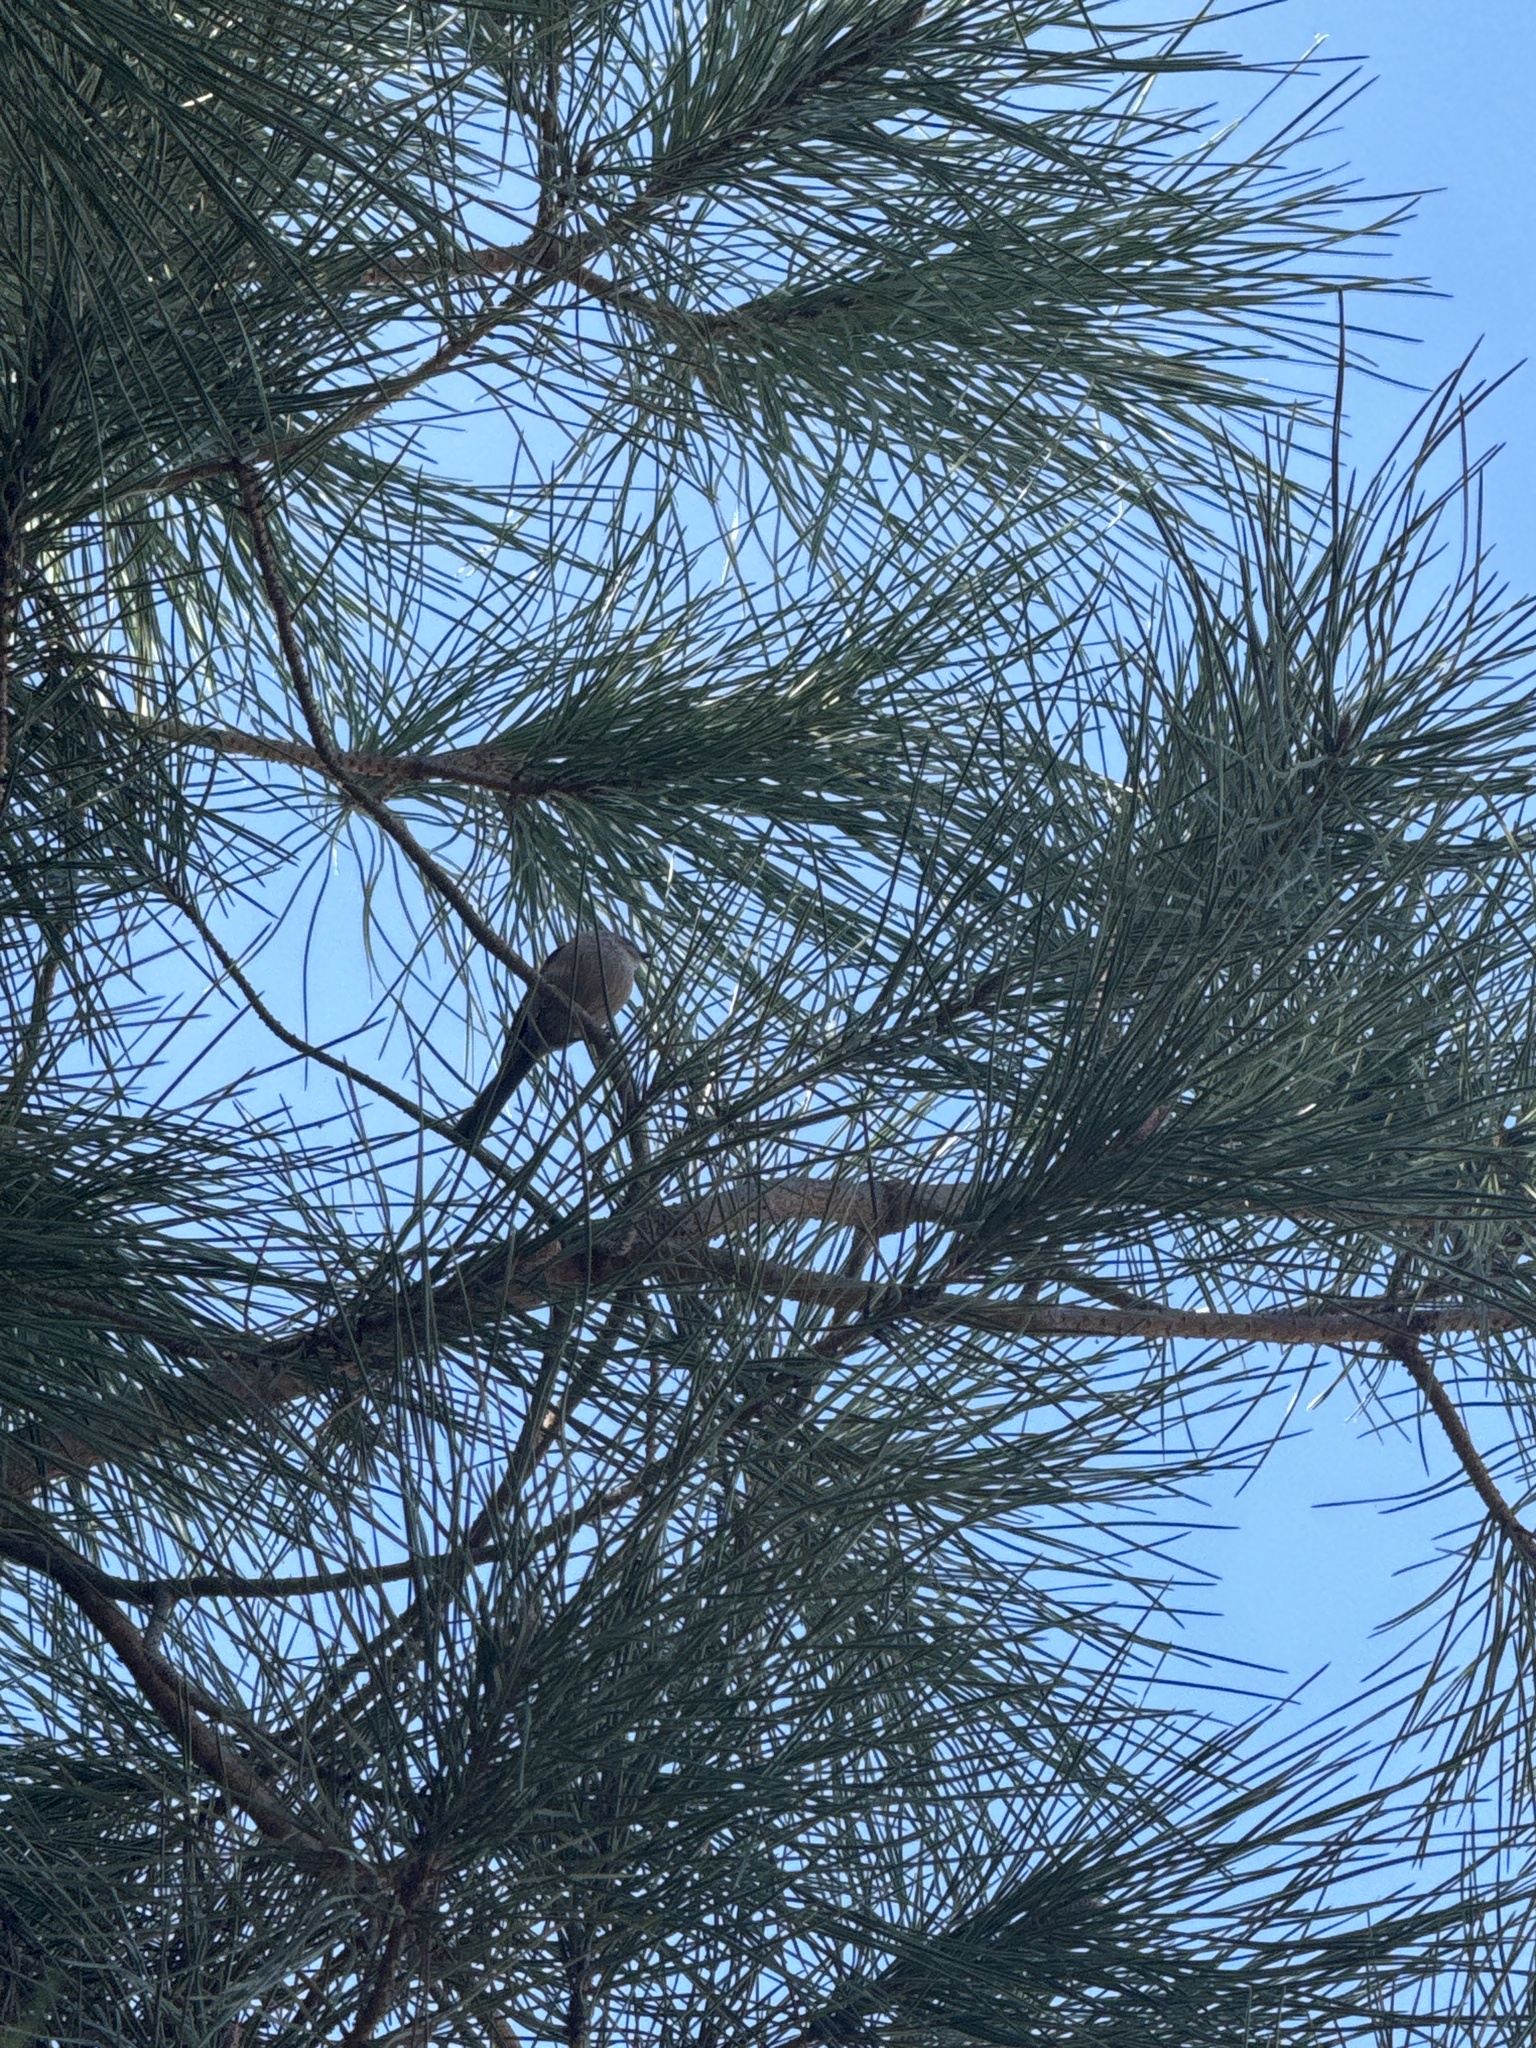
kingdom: Animalia
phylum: Chordata
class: Aves
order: Passeriformes
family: Aegithalidae
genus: Psaltriparus
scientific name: Psaltriparus minimus
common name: American bushtit
